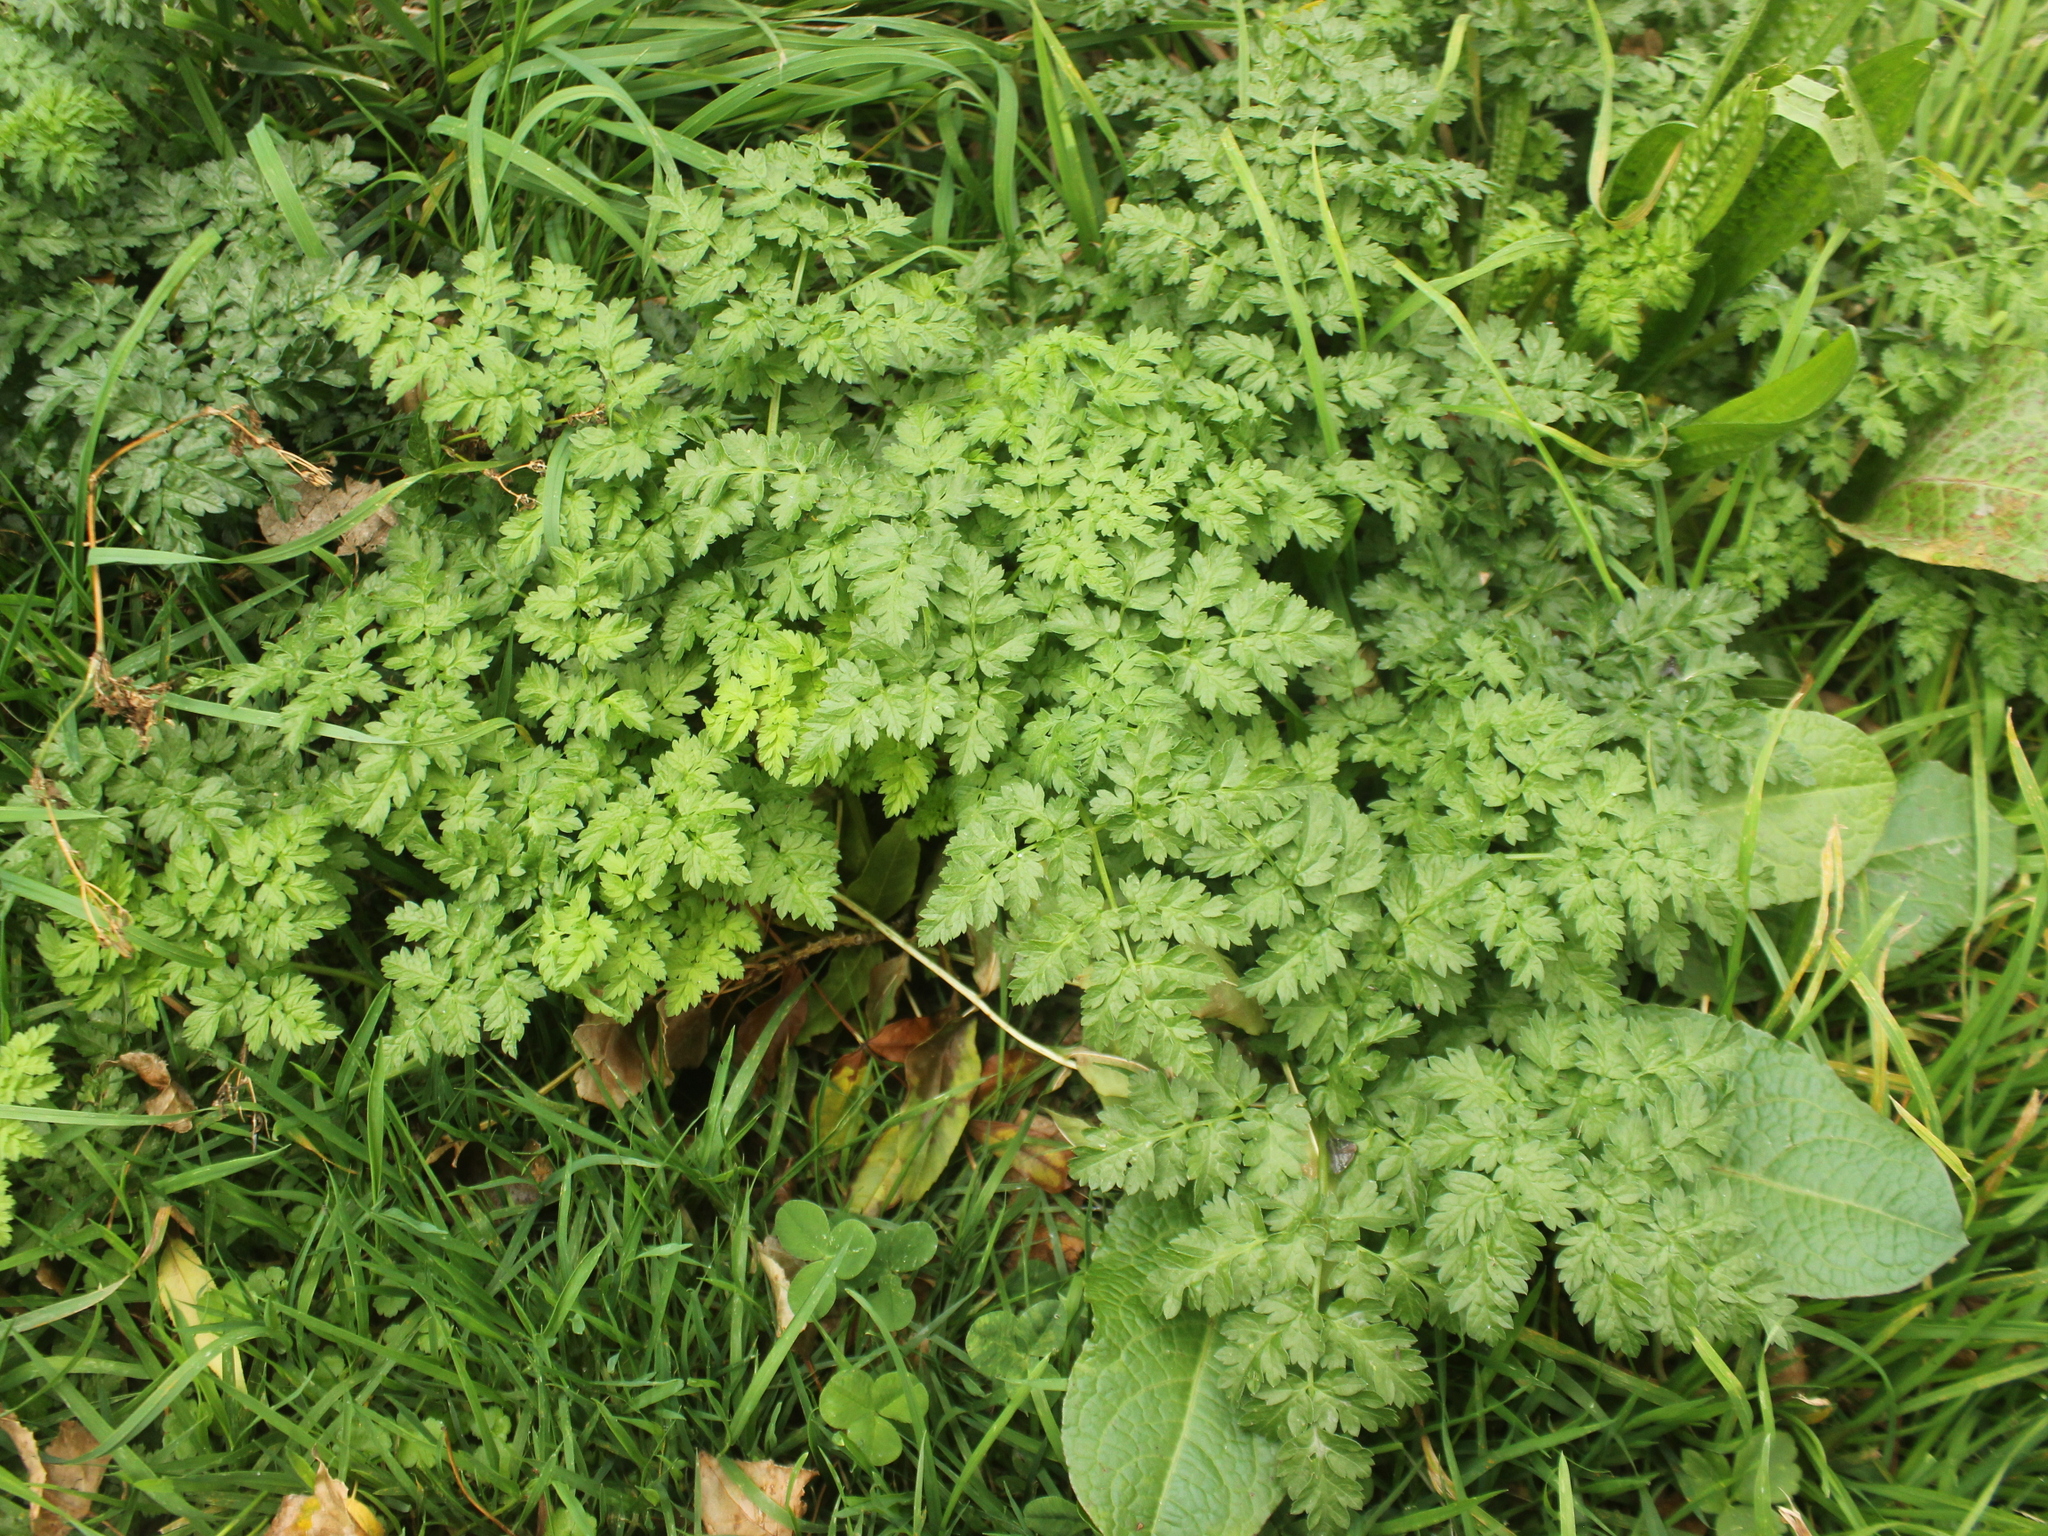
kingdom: Plantae
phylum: Tracheophyta
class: Magnoliopsida
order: Apiales
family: Apiaceae
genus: Anthriscus
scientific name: Anthriscus sylvestris
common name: Cow parsley
